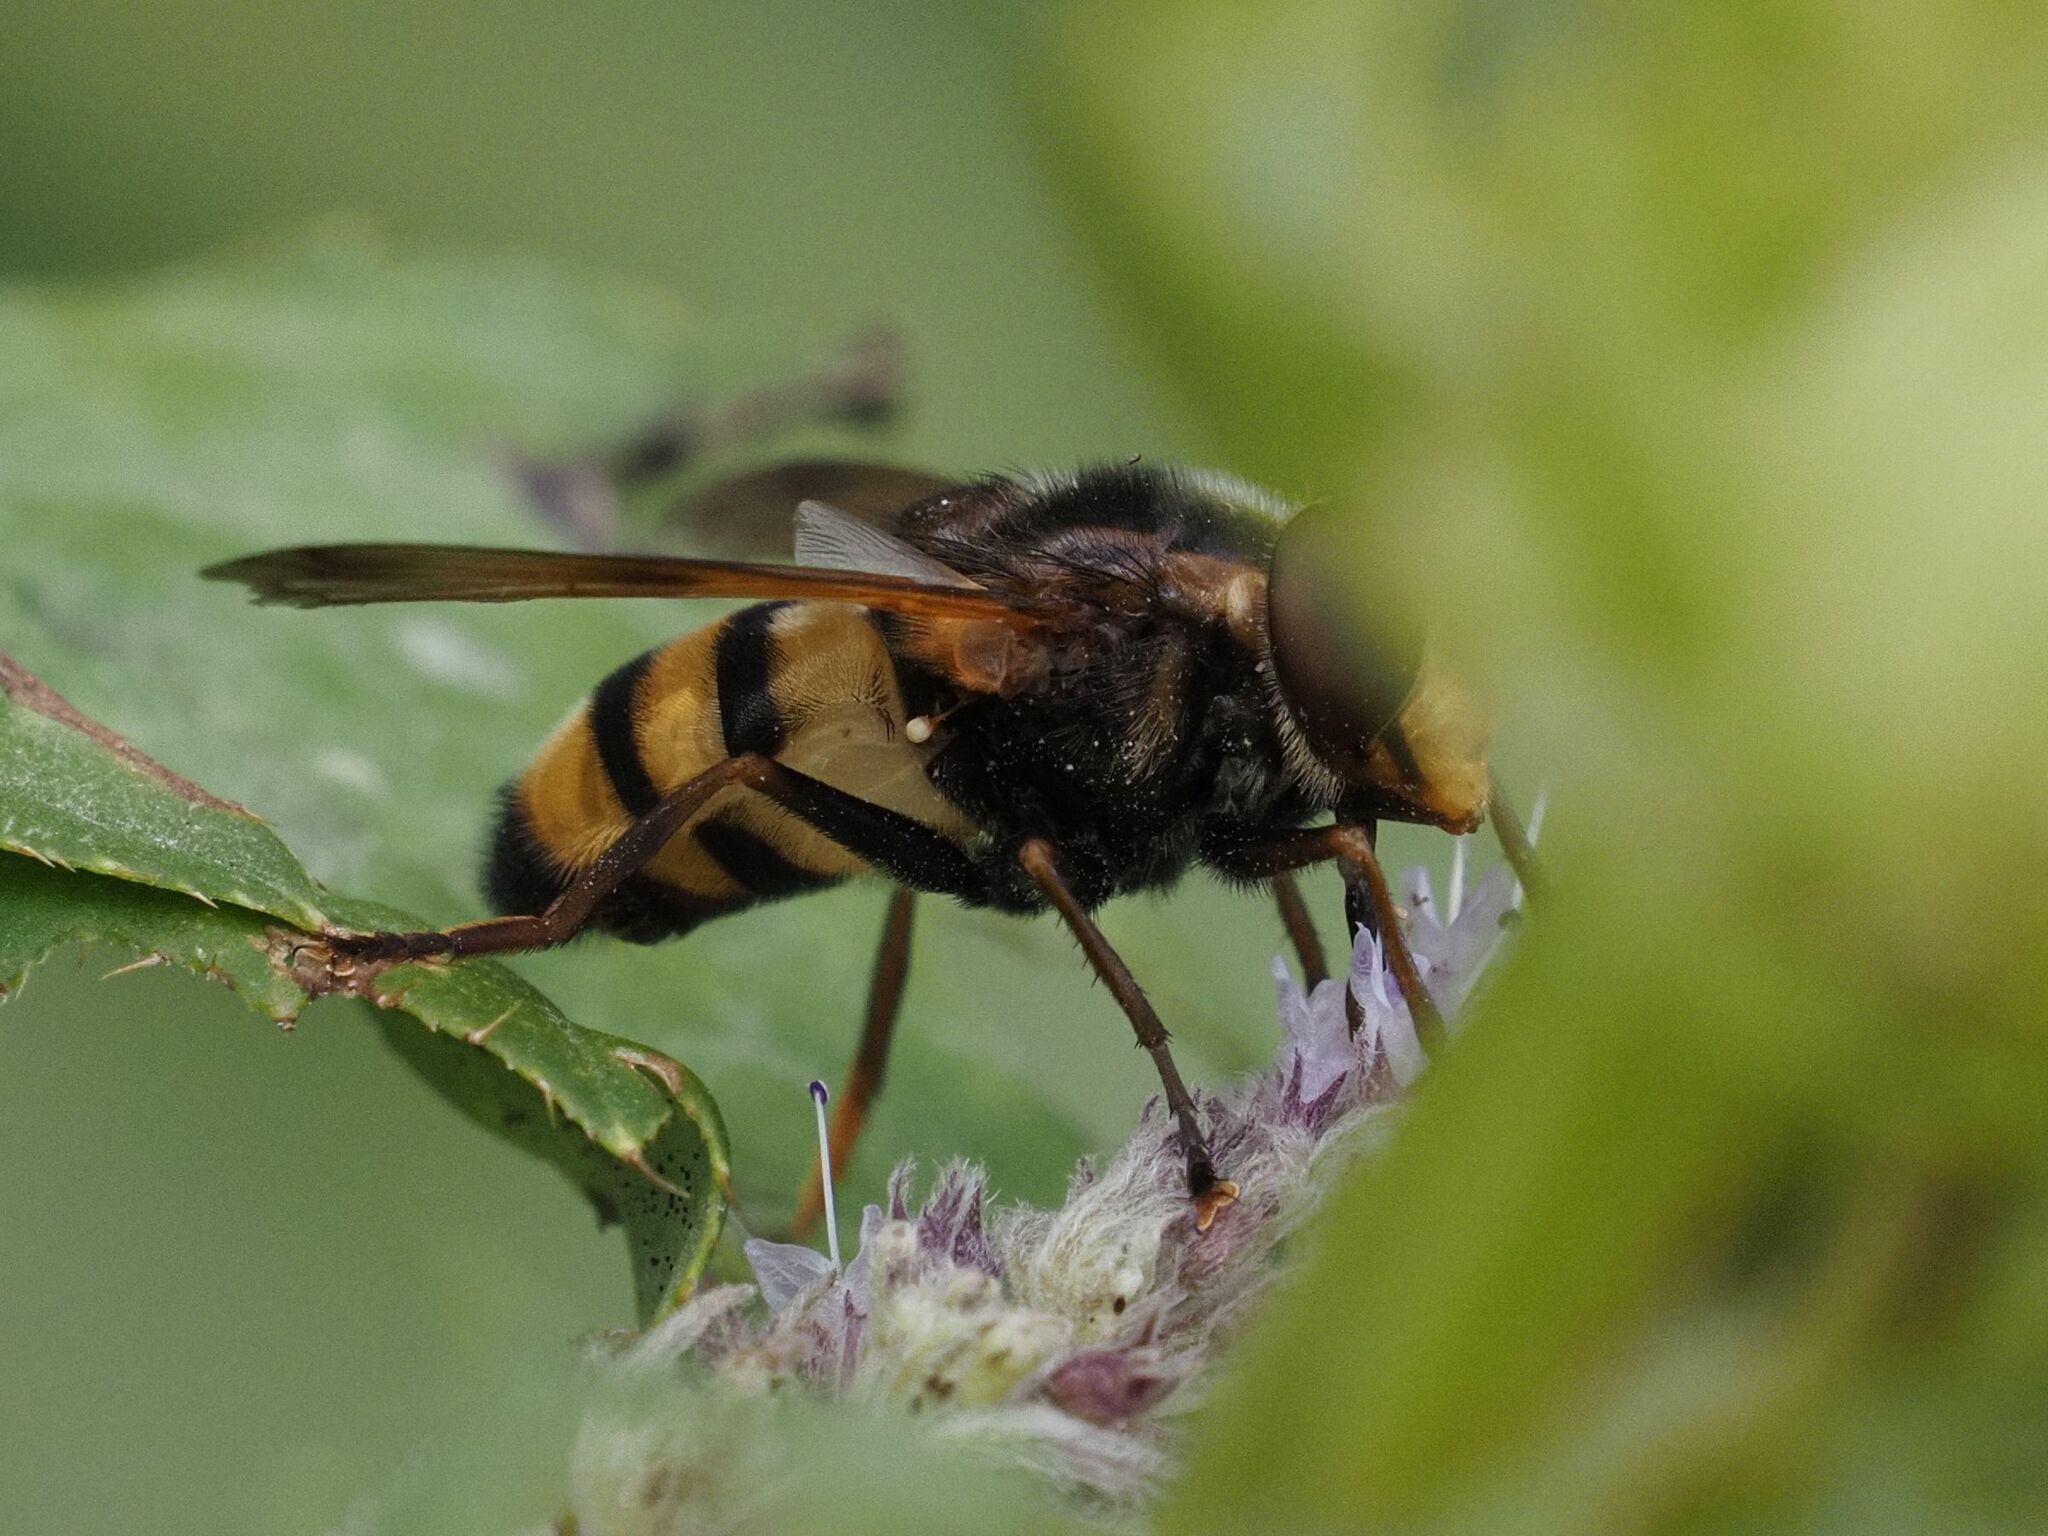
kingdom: Animalia
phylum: Arthropoda
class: Insecta
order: Diptera
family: Syrphidae
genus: Volucella
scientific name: Volucella inanis
